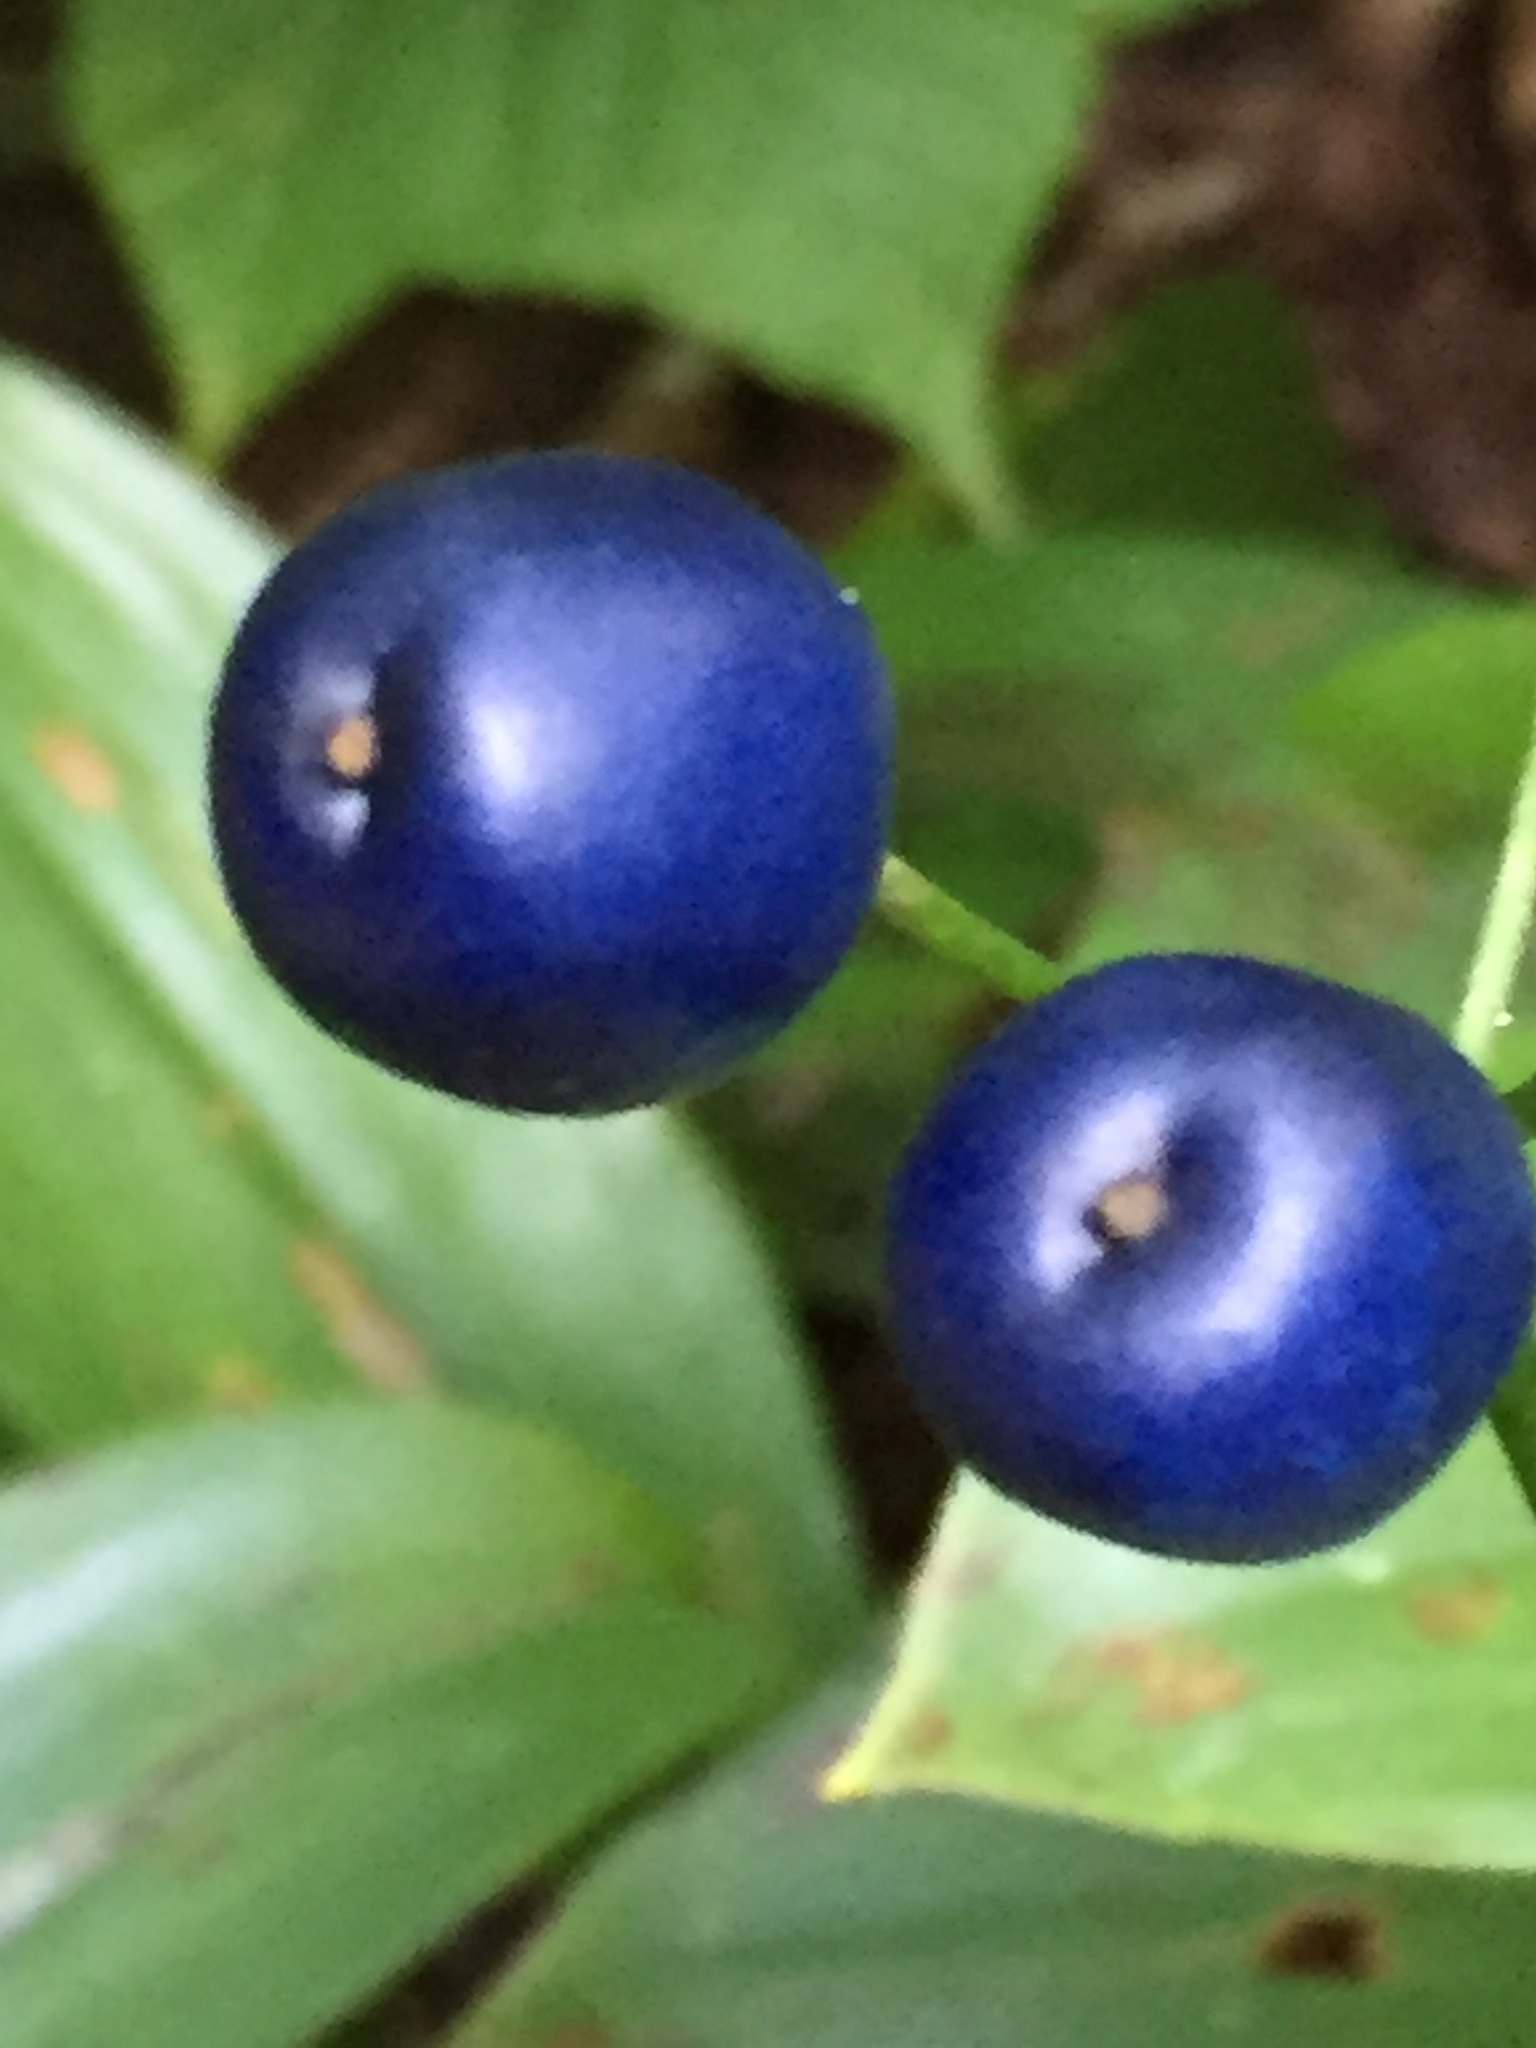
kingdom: Plantae
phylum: Tracheophyta
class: Liliopsida
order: Liliales
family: Liliaceae
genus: Clintonia
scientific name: Clintonia borealis
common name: Yellow clintonia
